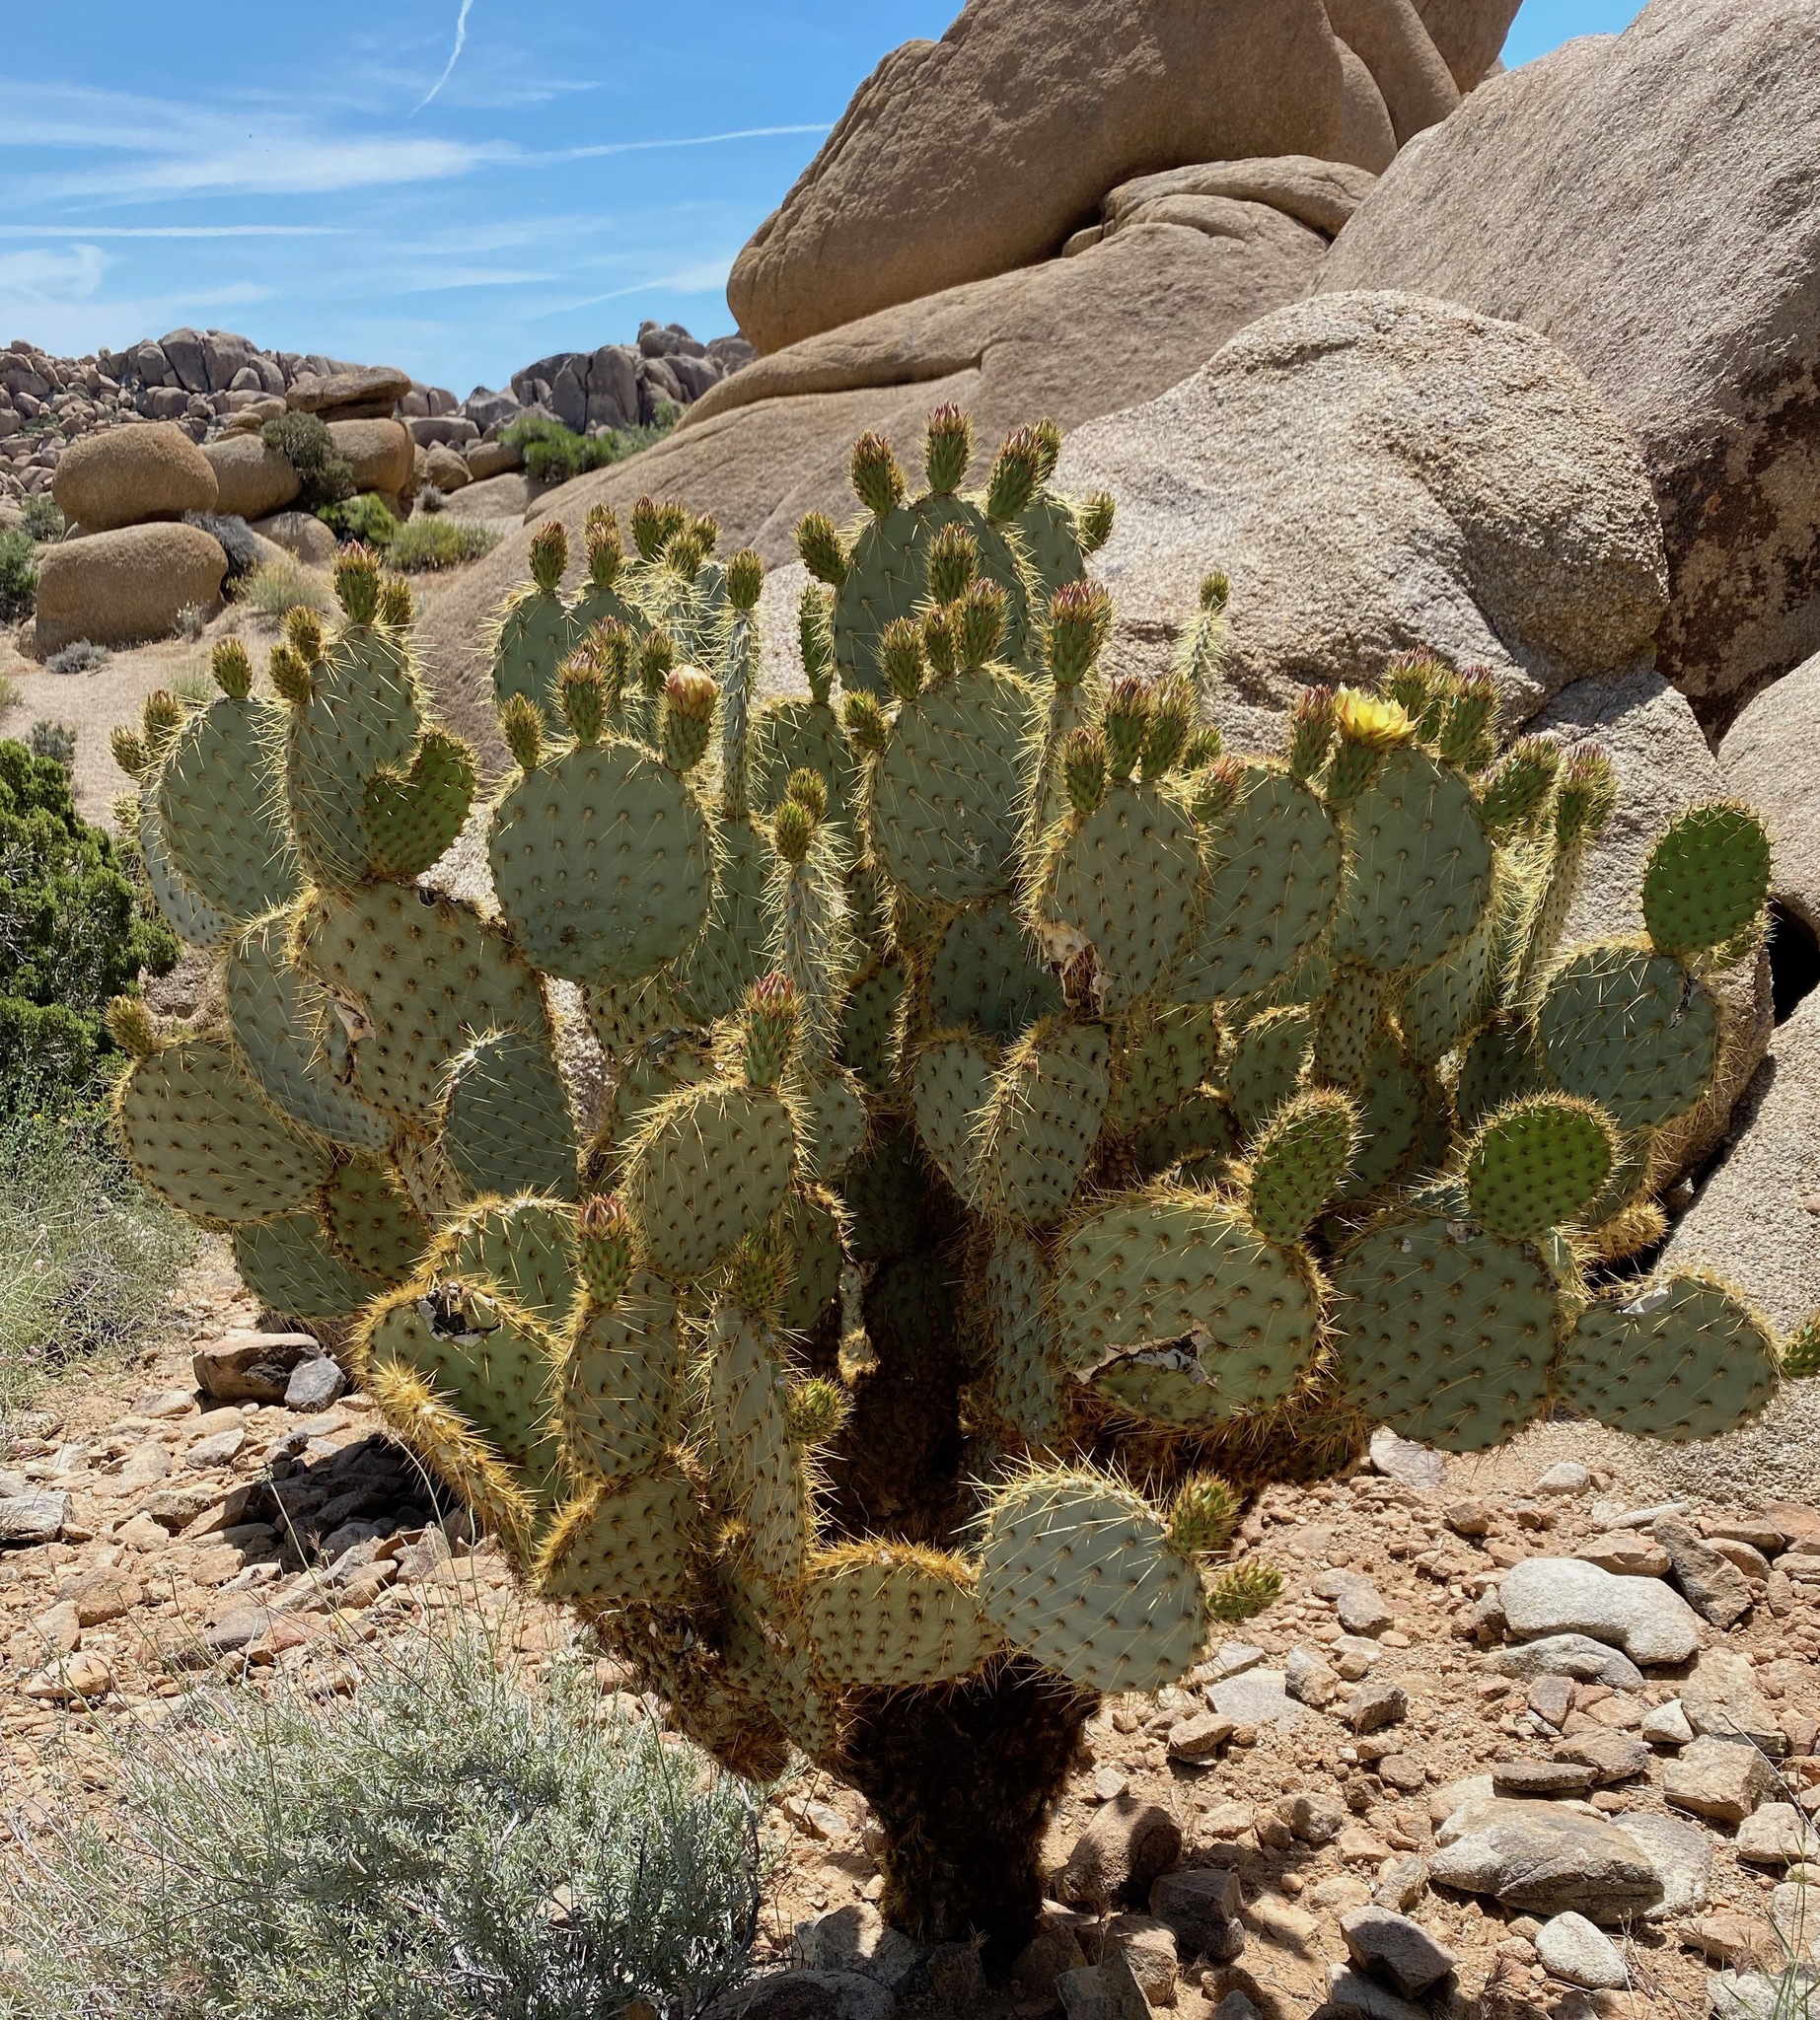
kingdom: Plantae
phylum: Tracheophyta
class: Magnoliopsida
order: Caryophyllales
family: Cactaceae
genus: Opuntia
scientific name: Opuntia chlorotica
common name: Dollar-joint prickly-pear
